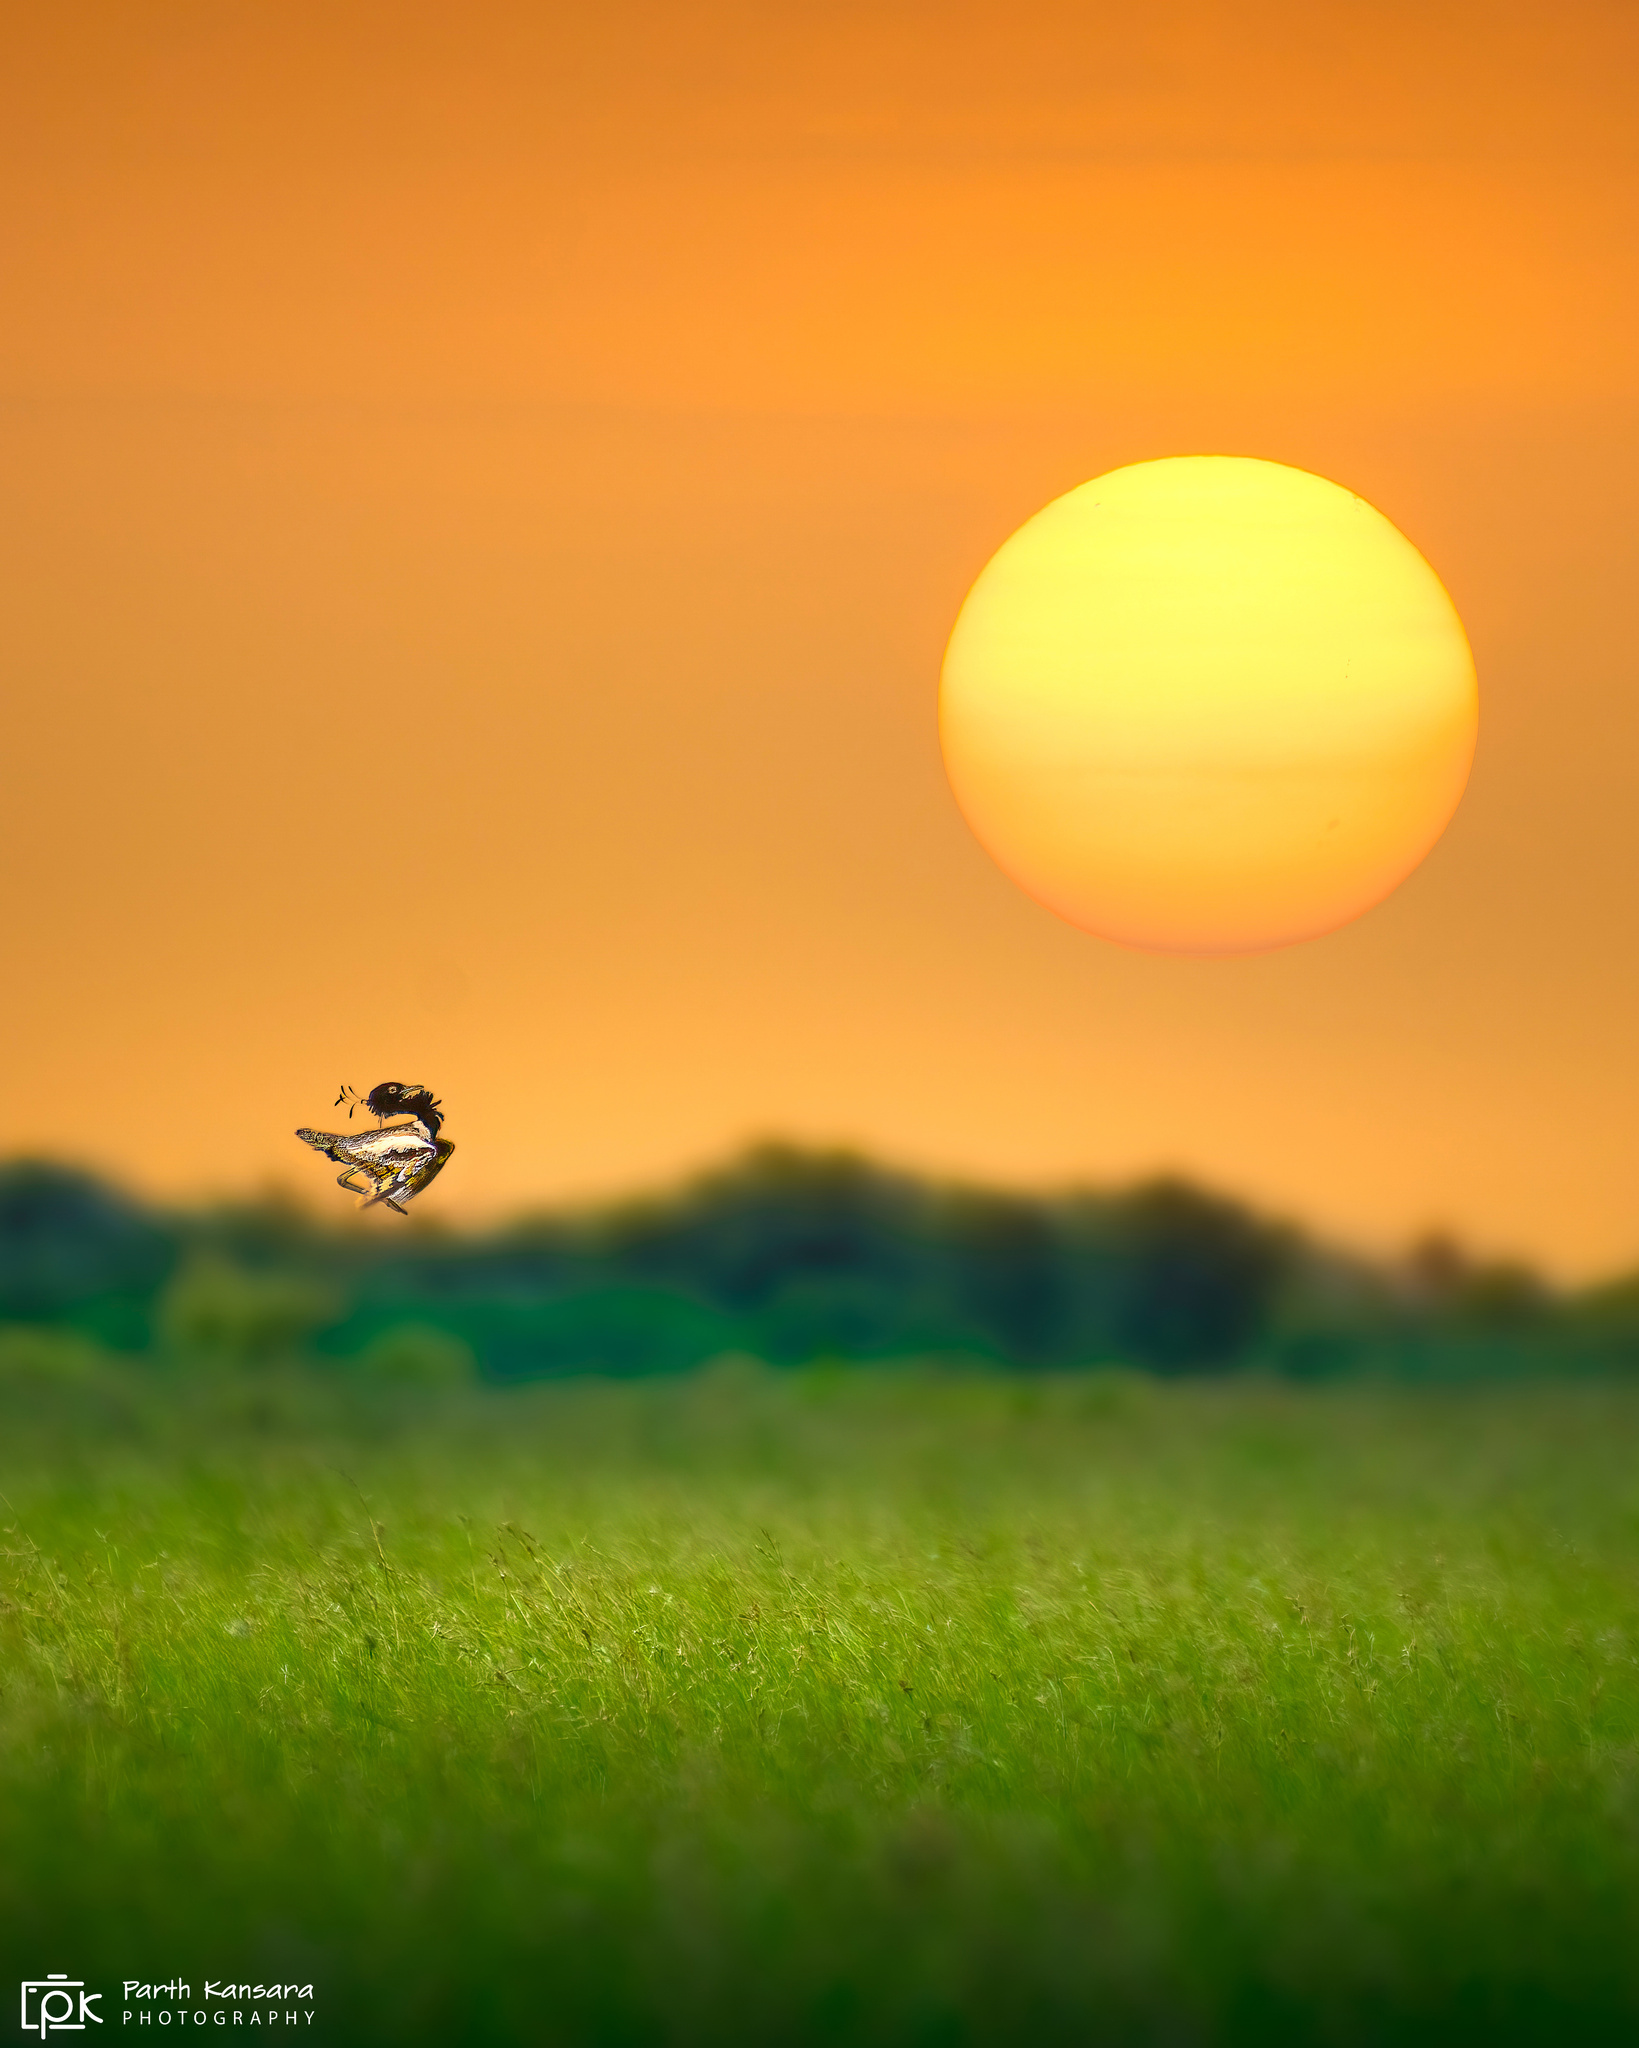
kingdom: Animalia
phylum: Chordata
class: Aves
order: Otidiformes
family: Otididae
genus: Sypheotides
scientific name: Sypheotides indicus
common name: Lesser florican
